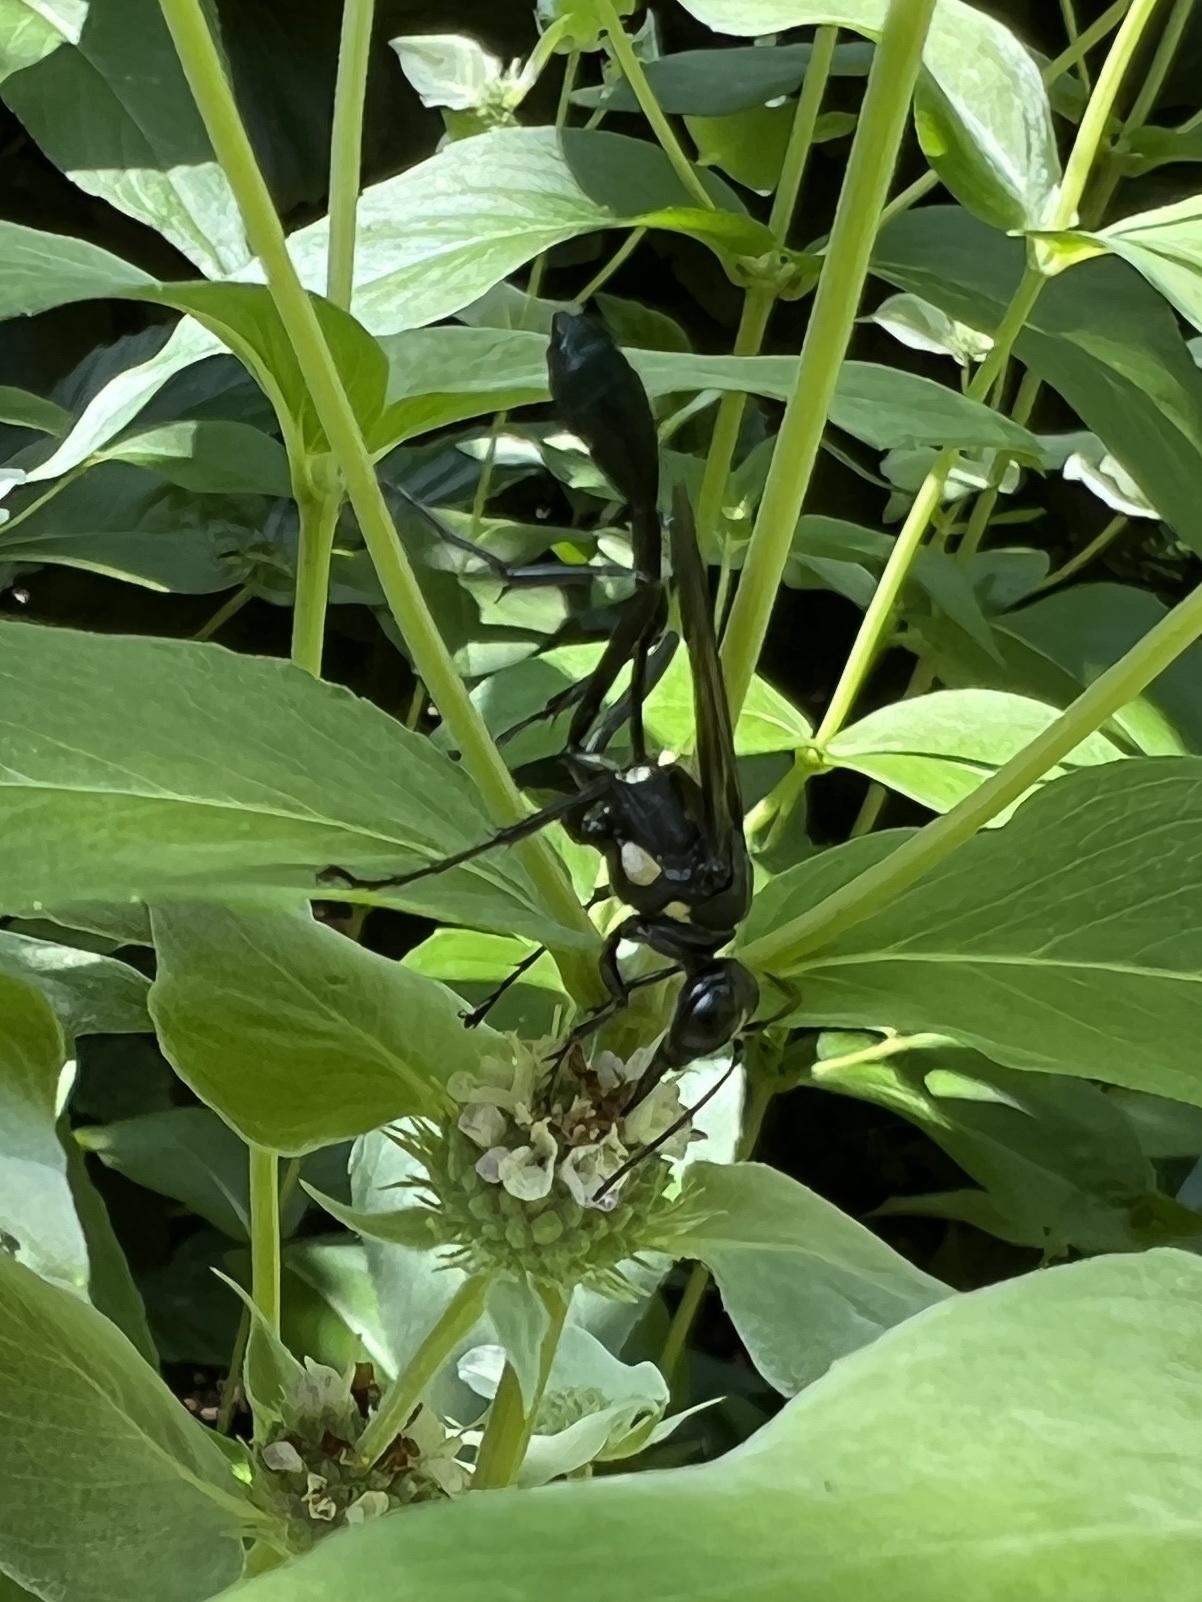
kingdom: Animalia
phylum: Arthropoda
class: Insecta
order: Hymenoptera
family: Sphecidae
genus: Eremnophila
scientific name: Eremnophila aureonotata
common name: Gold-marked thread-waisted wasp
